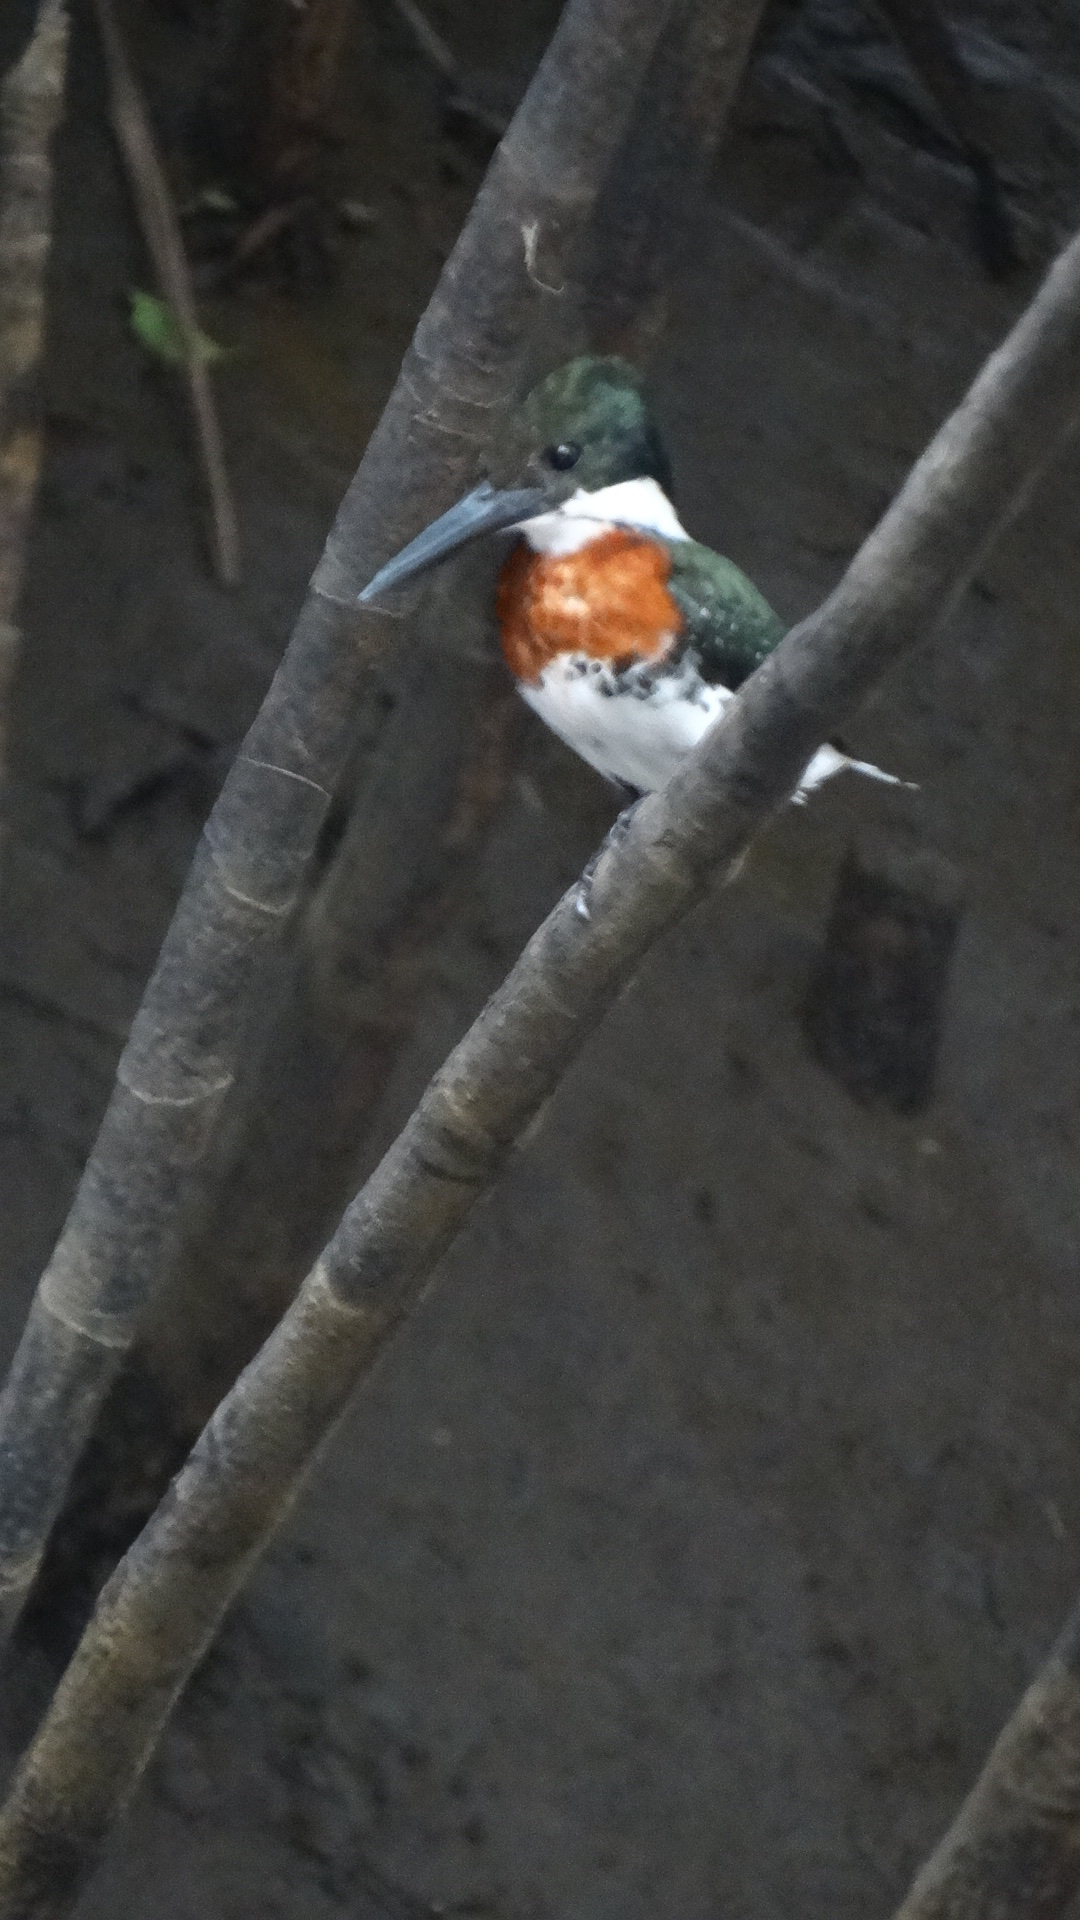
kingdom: Animalia
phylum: Chordata
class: Aves
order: Coraciiformes
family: Alcedinidae
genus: Chloroceryle
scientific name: Chloroceryle americana
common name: Green kingfisher
